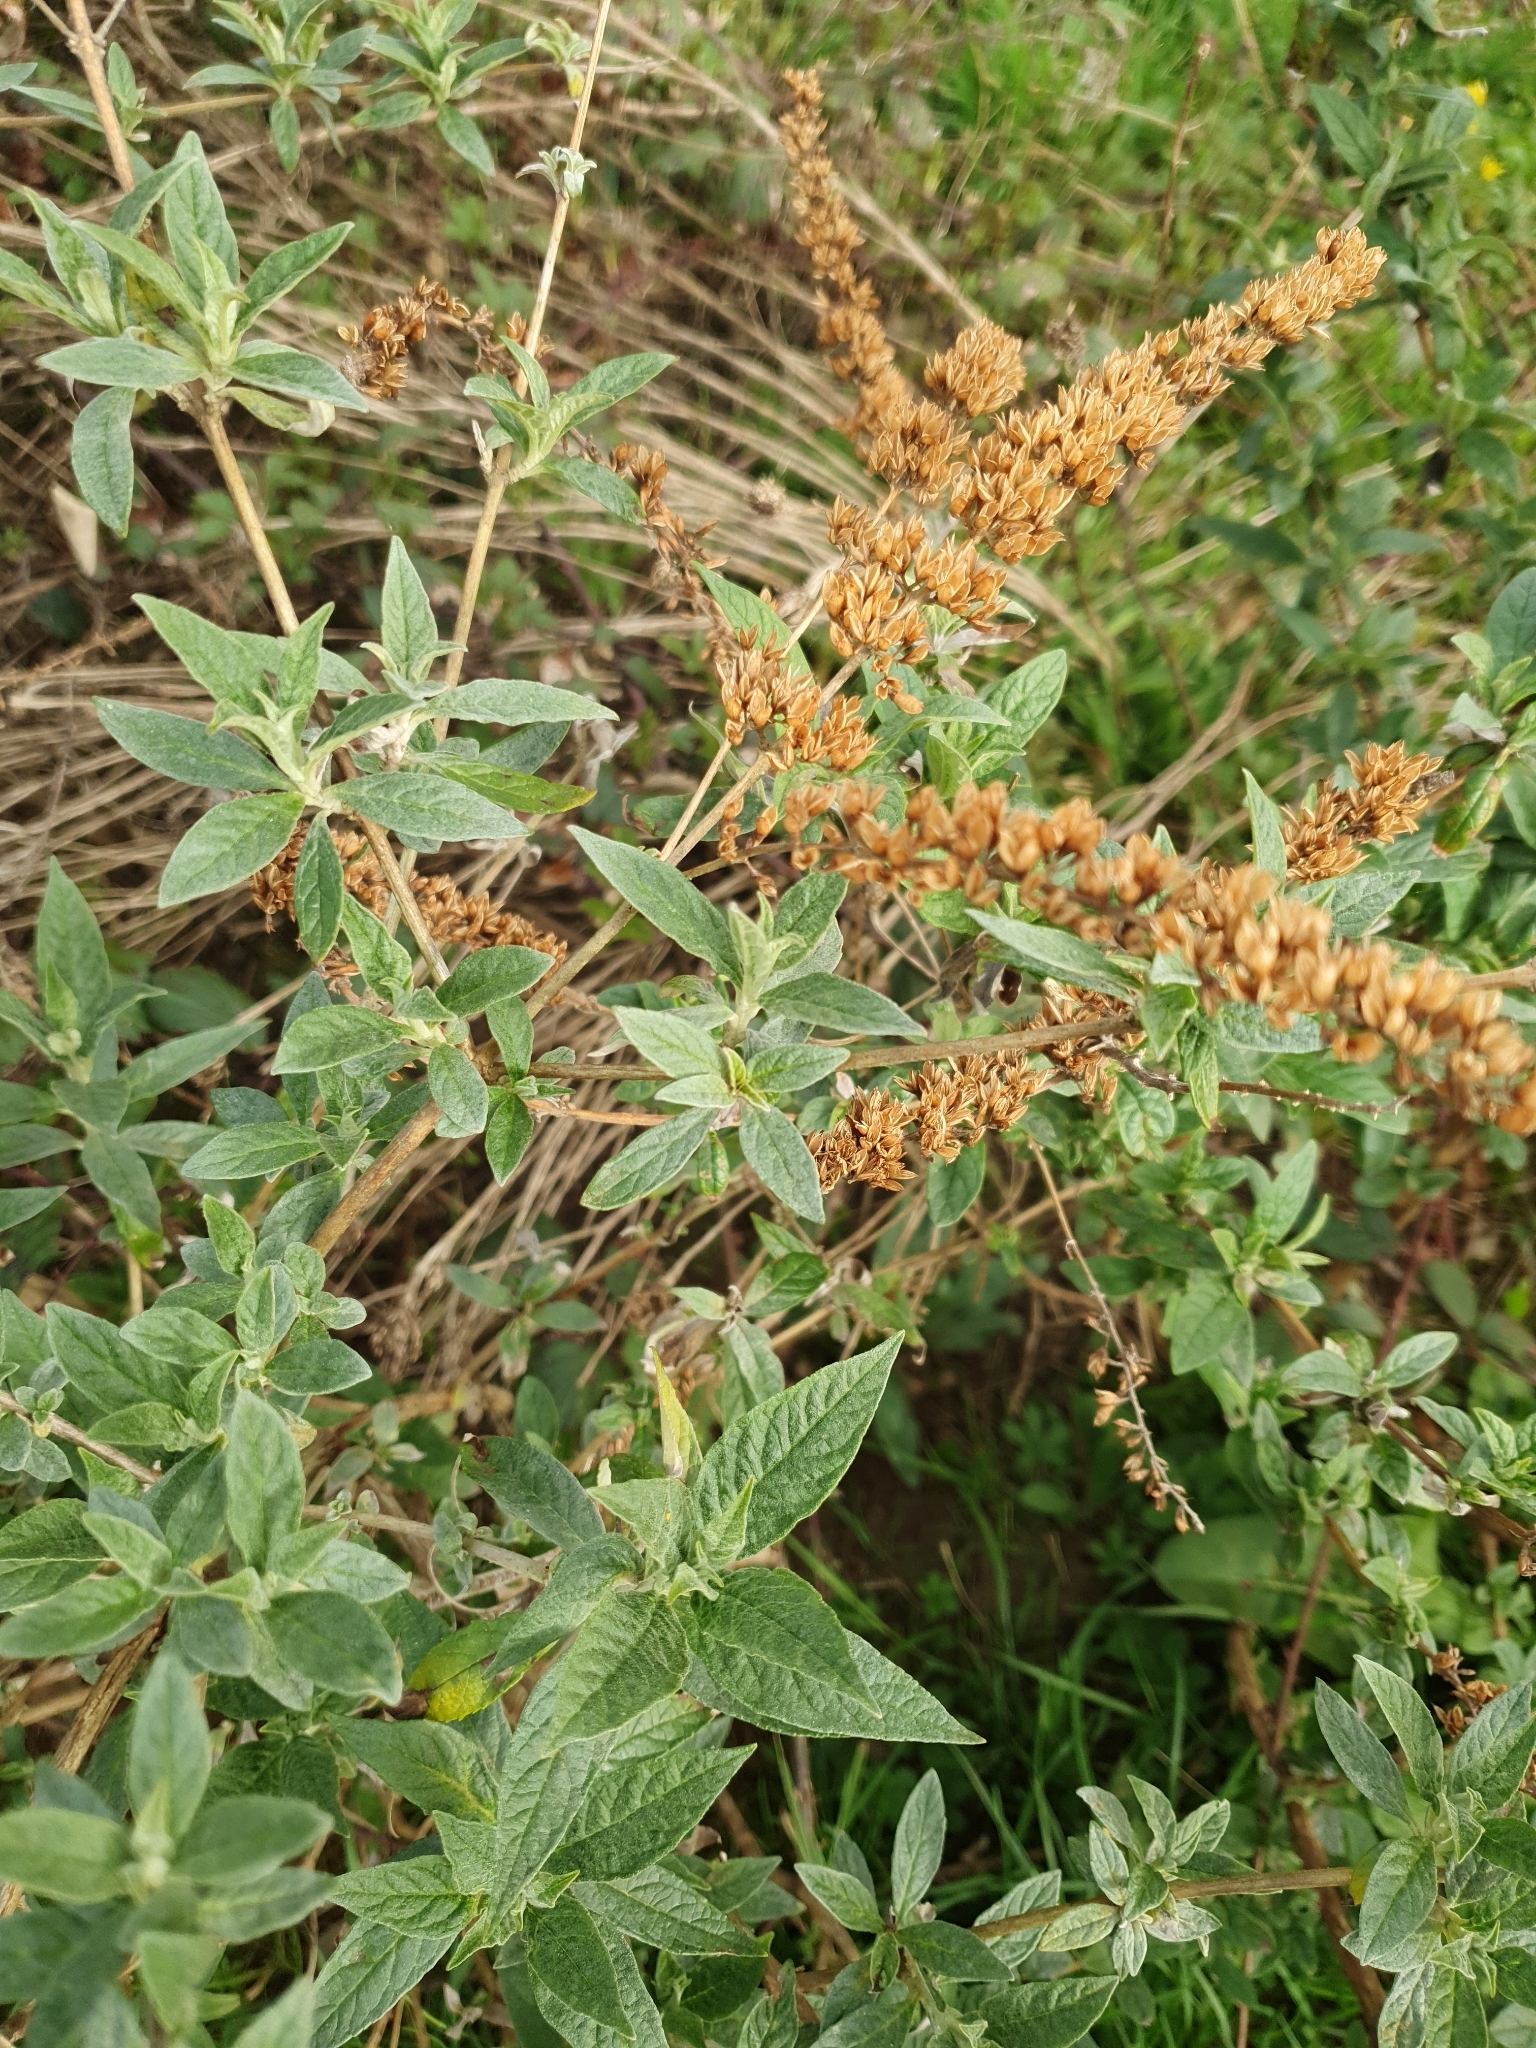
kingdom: Plantae
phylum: Tracheophyta
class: Magnoliopsida
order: Lamiales
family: Scrophulariaceae
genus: Buddleja
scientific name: Buddleja davidii
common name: Butterfly-bush
